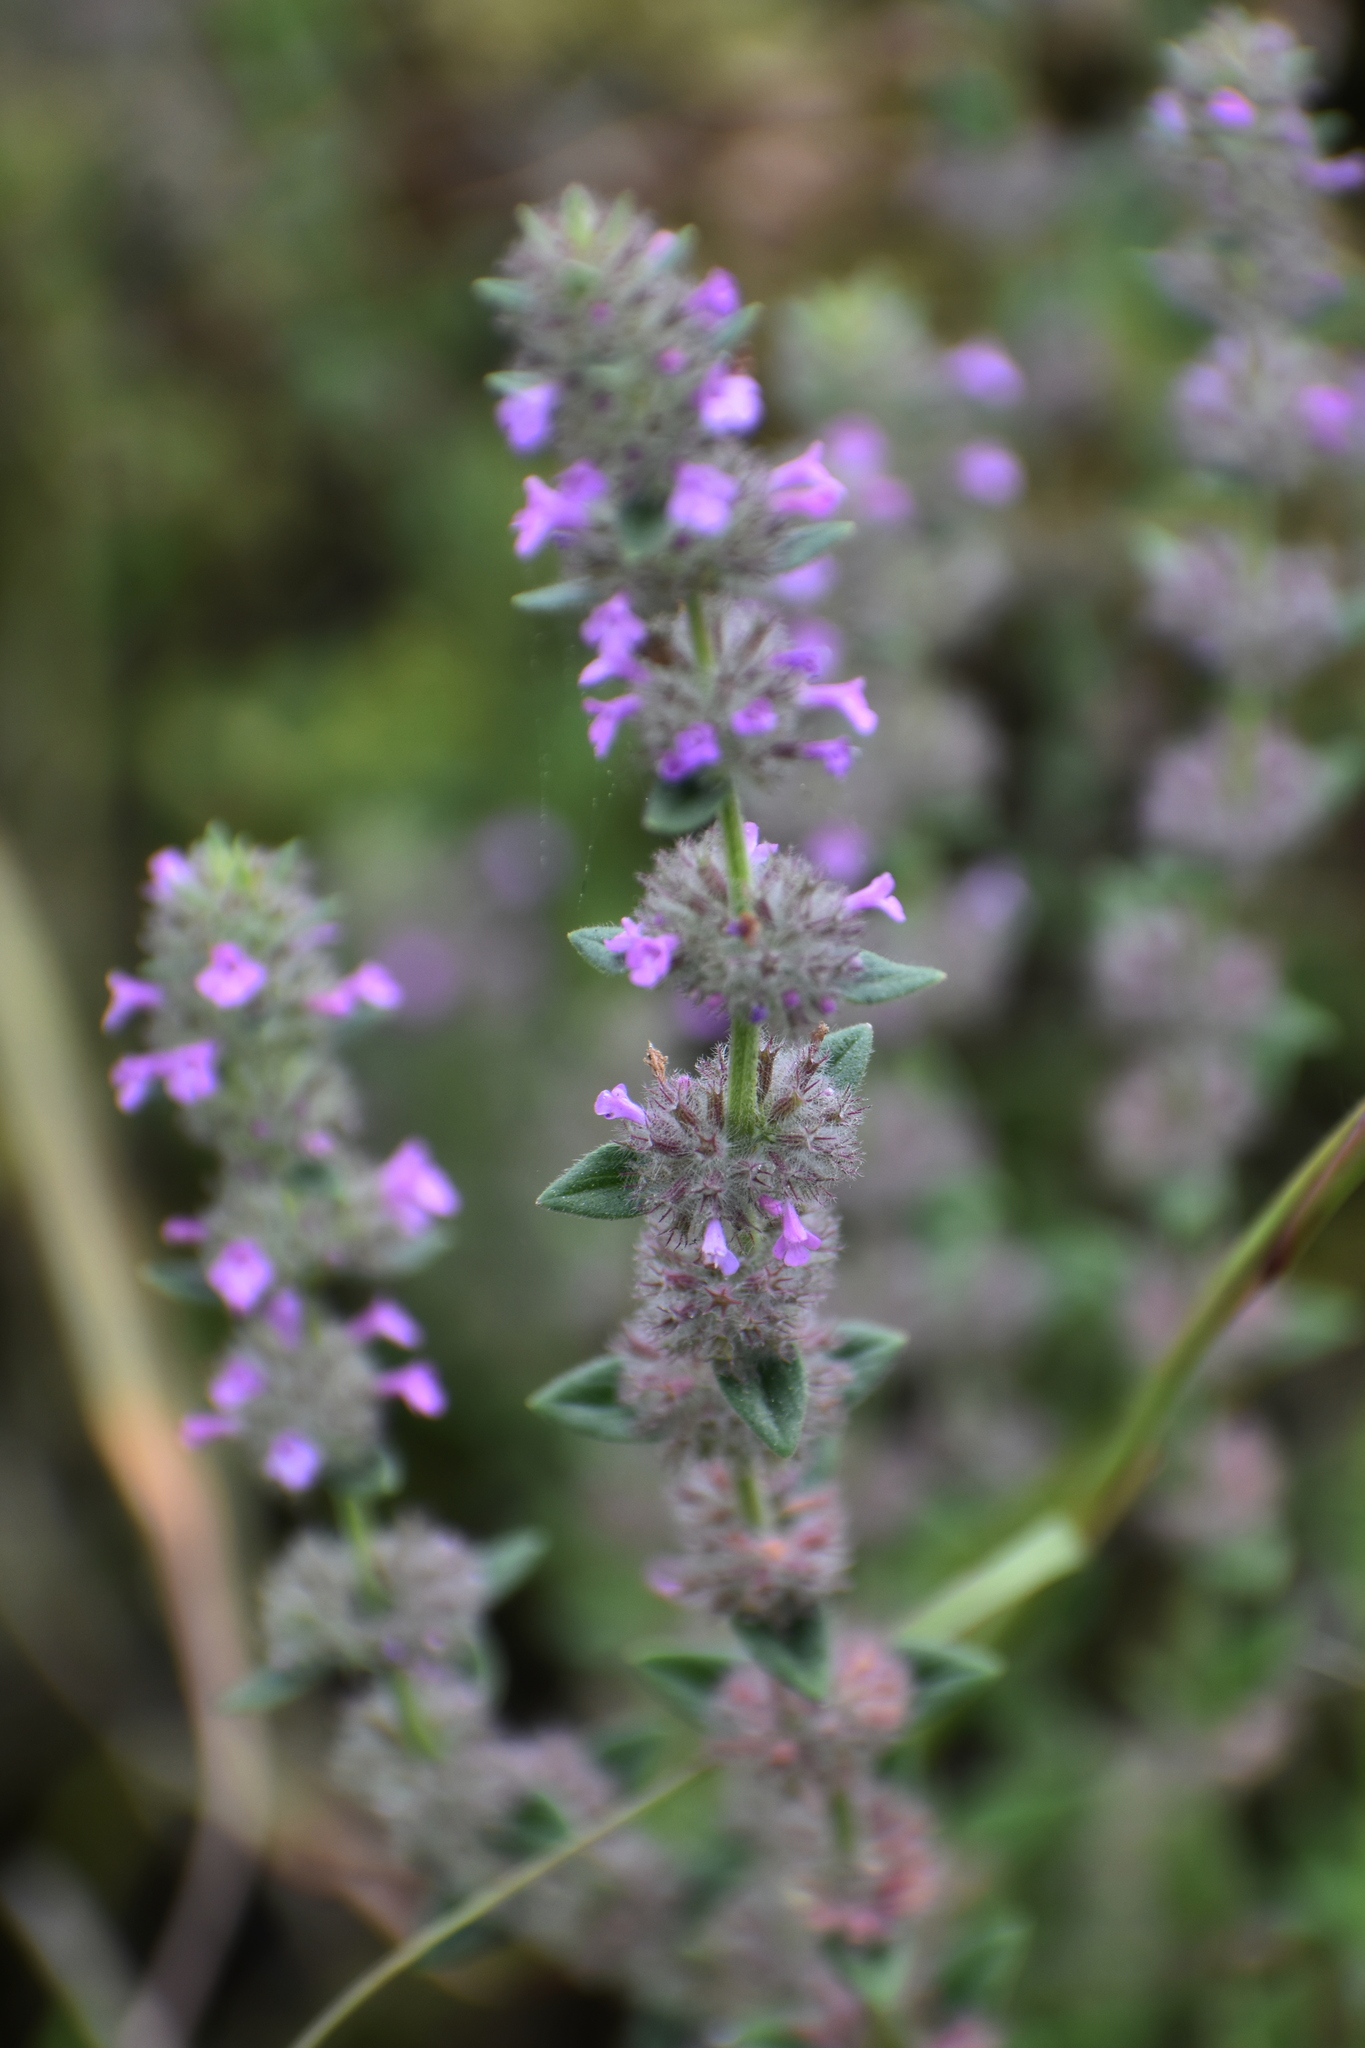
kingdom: Plantae
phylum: Tracheophyta
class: Magnoliopsida
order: Lamiales
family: Lamiaceae
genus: Micromeria
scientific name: Micromeria nervosa
